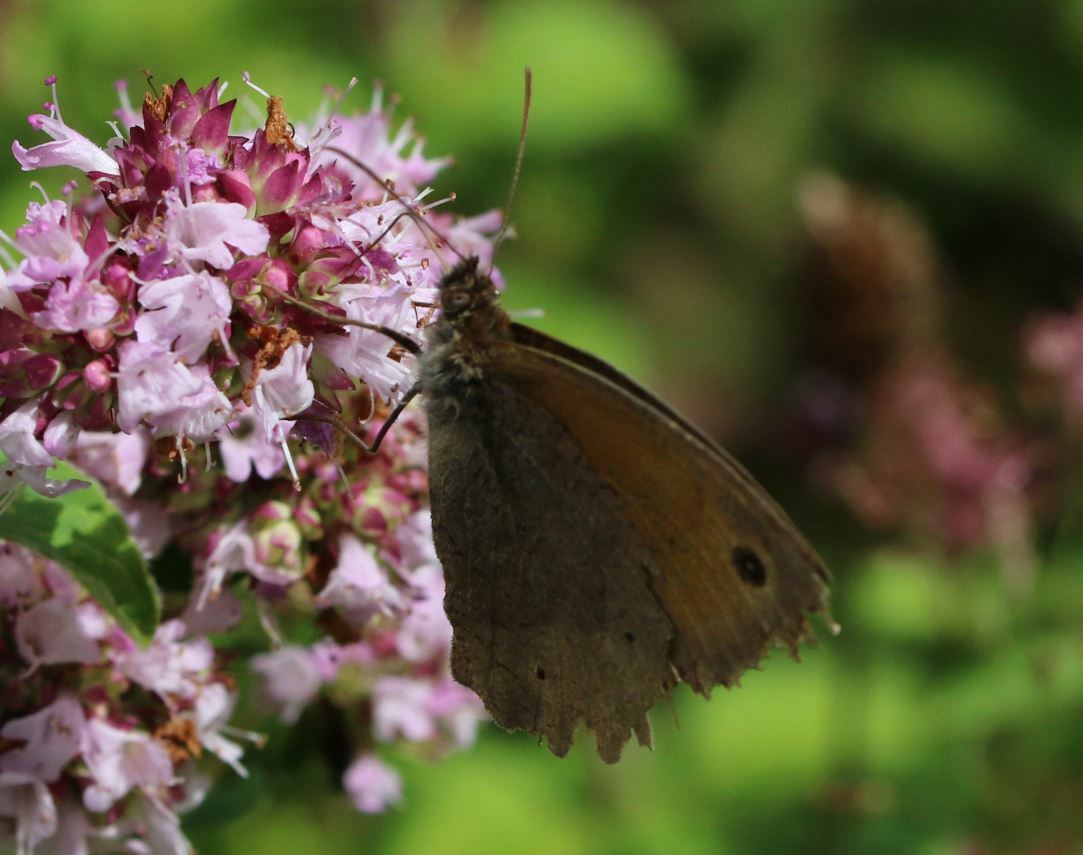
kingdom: Animalia
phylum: Arthropoda
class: Insecta
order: Lepidoptera
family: Nymphalidae
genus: Maniola
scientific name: Maniola jurtina
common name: Meadow brown
